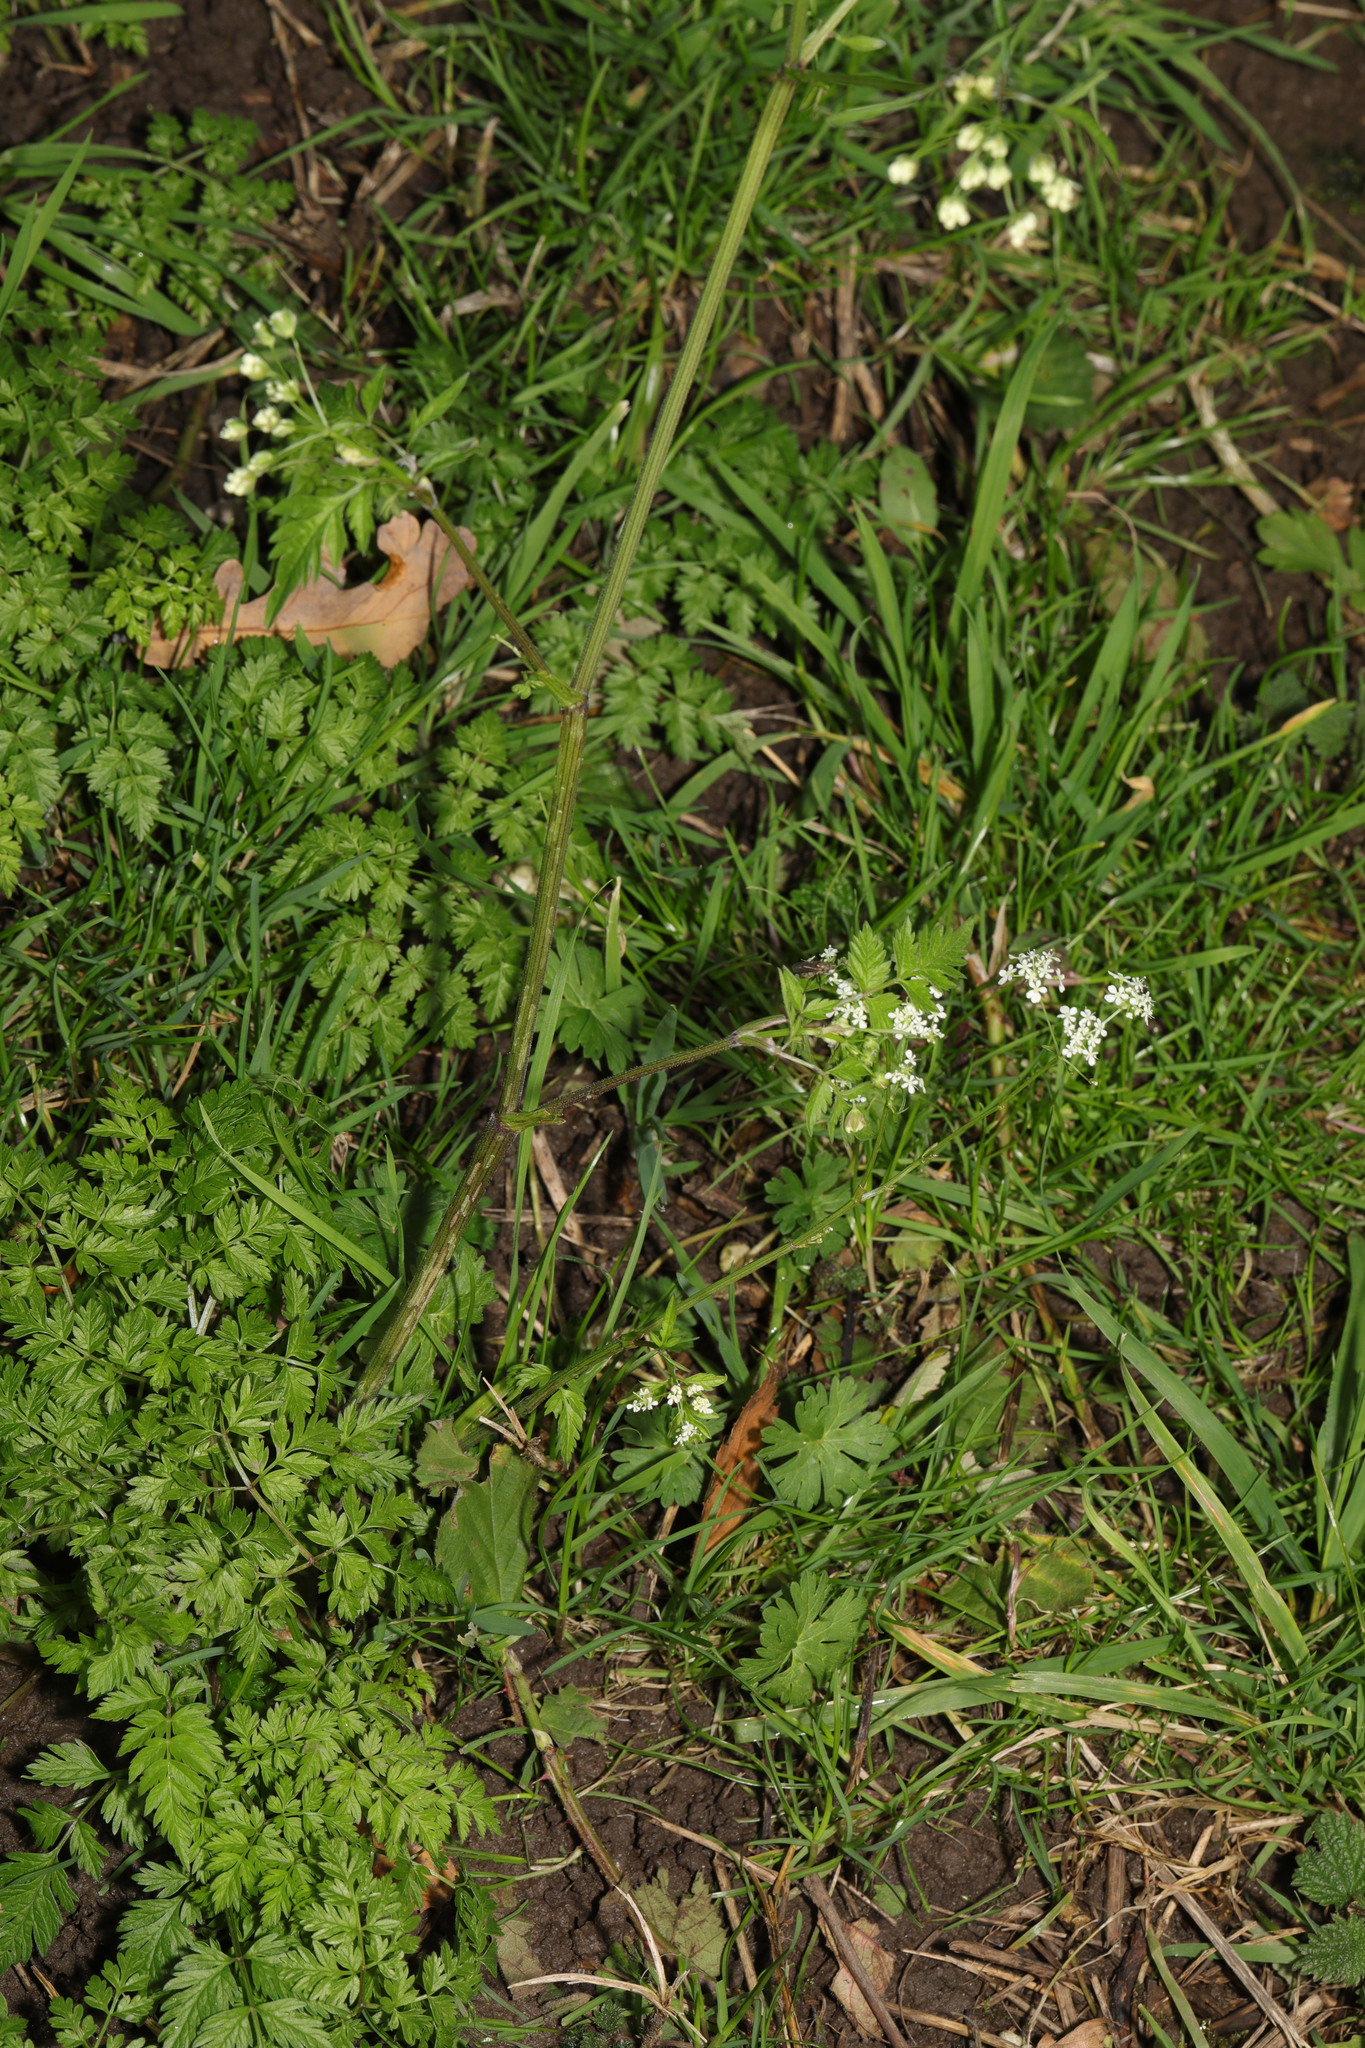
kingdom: Plantae
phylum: Tracheophyta
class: Magnoliopsida
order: Apiales
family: Apiaceae
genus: Anthriscus
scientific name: Anthriscus sylvestris
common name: Cow parsley
